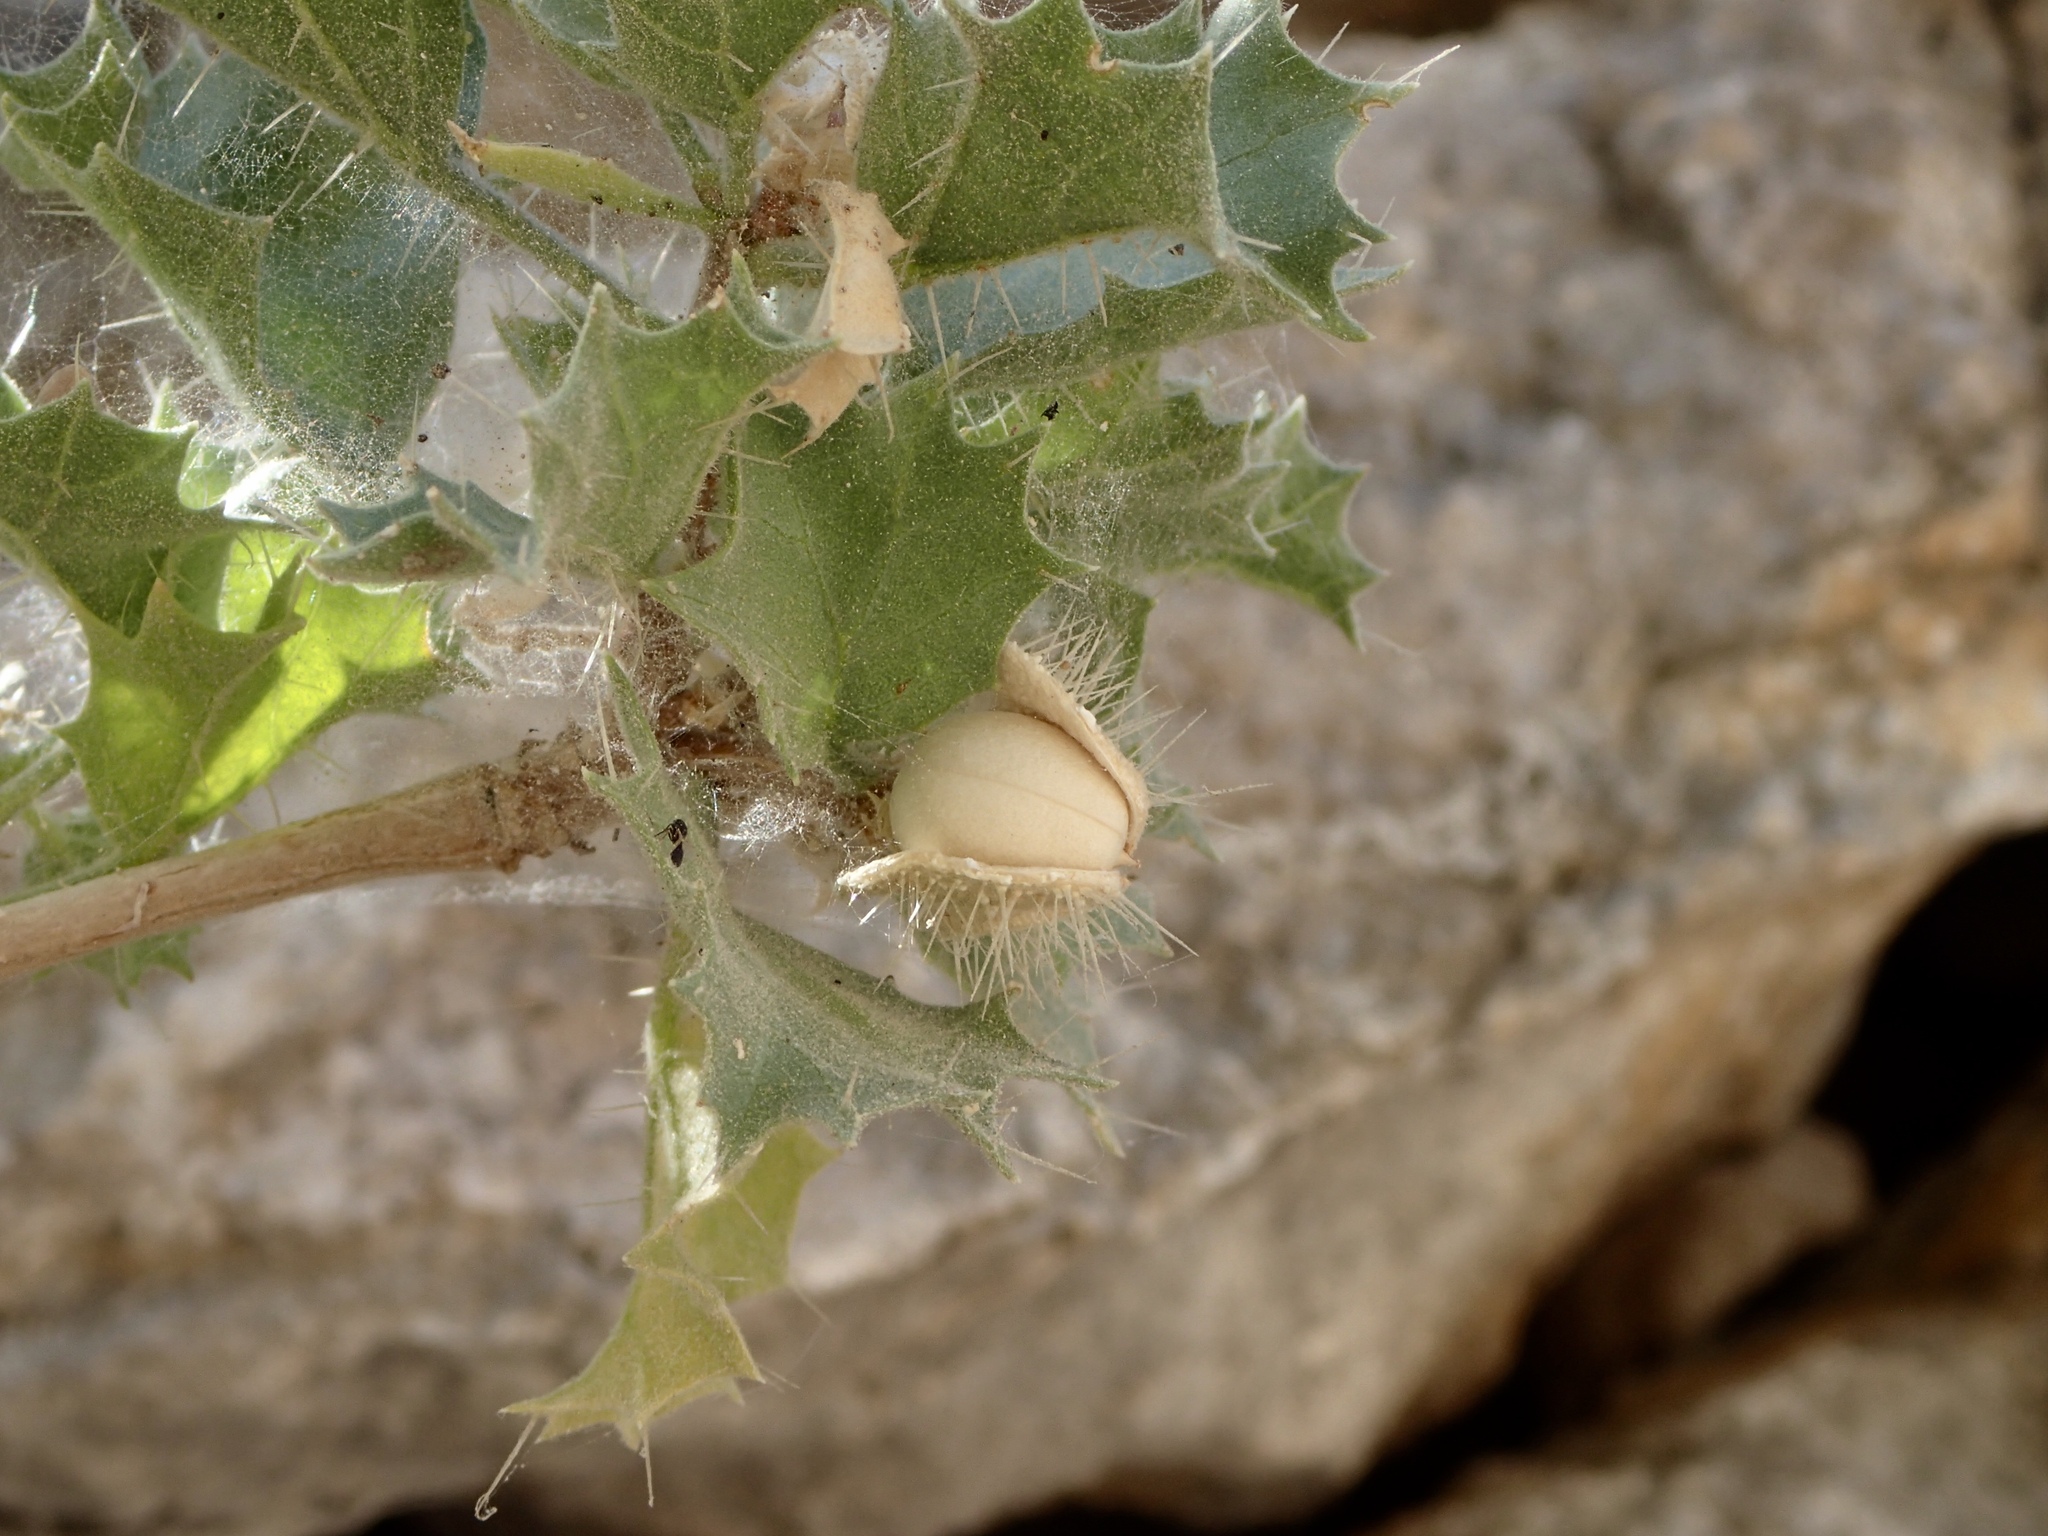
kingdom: Plantae
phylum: Tracheophyta
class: Magnoliopsida
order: Malpighiales
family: Euphorbiaceae
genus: Cnidoscolus
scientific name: Cnidoscolus palmeri
